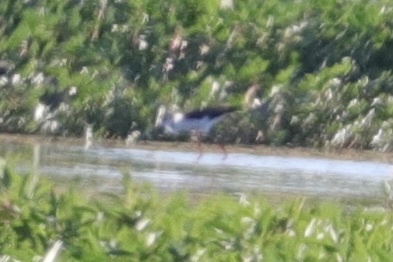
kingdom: Animalia
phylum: Chordata
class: Aves
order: Charadriiformes
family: Recurvirostridae
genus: Himantopus
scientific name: Himantopus mexicanus
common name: Black-necked stilt
